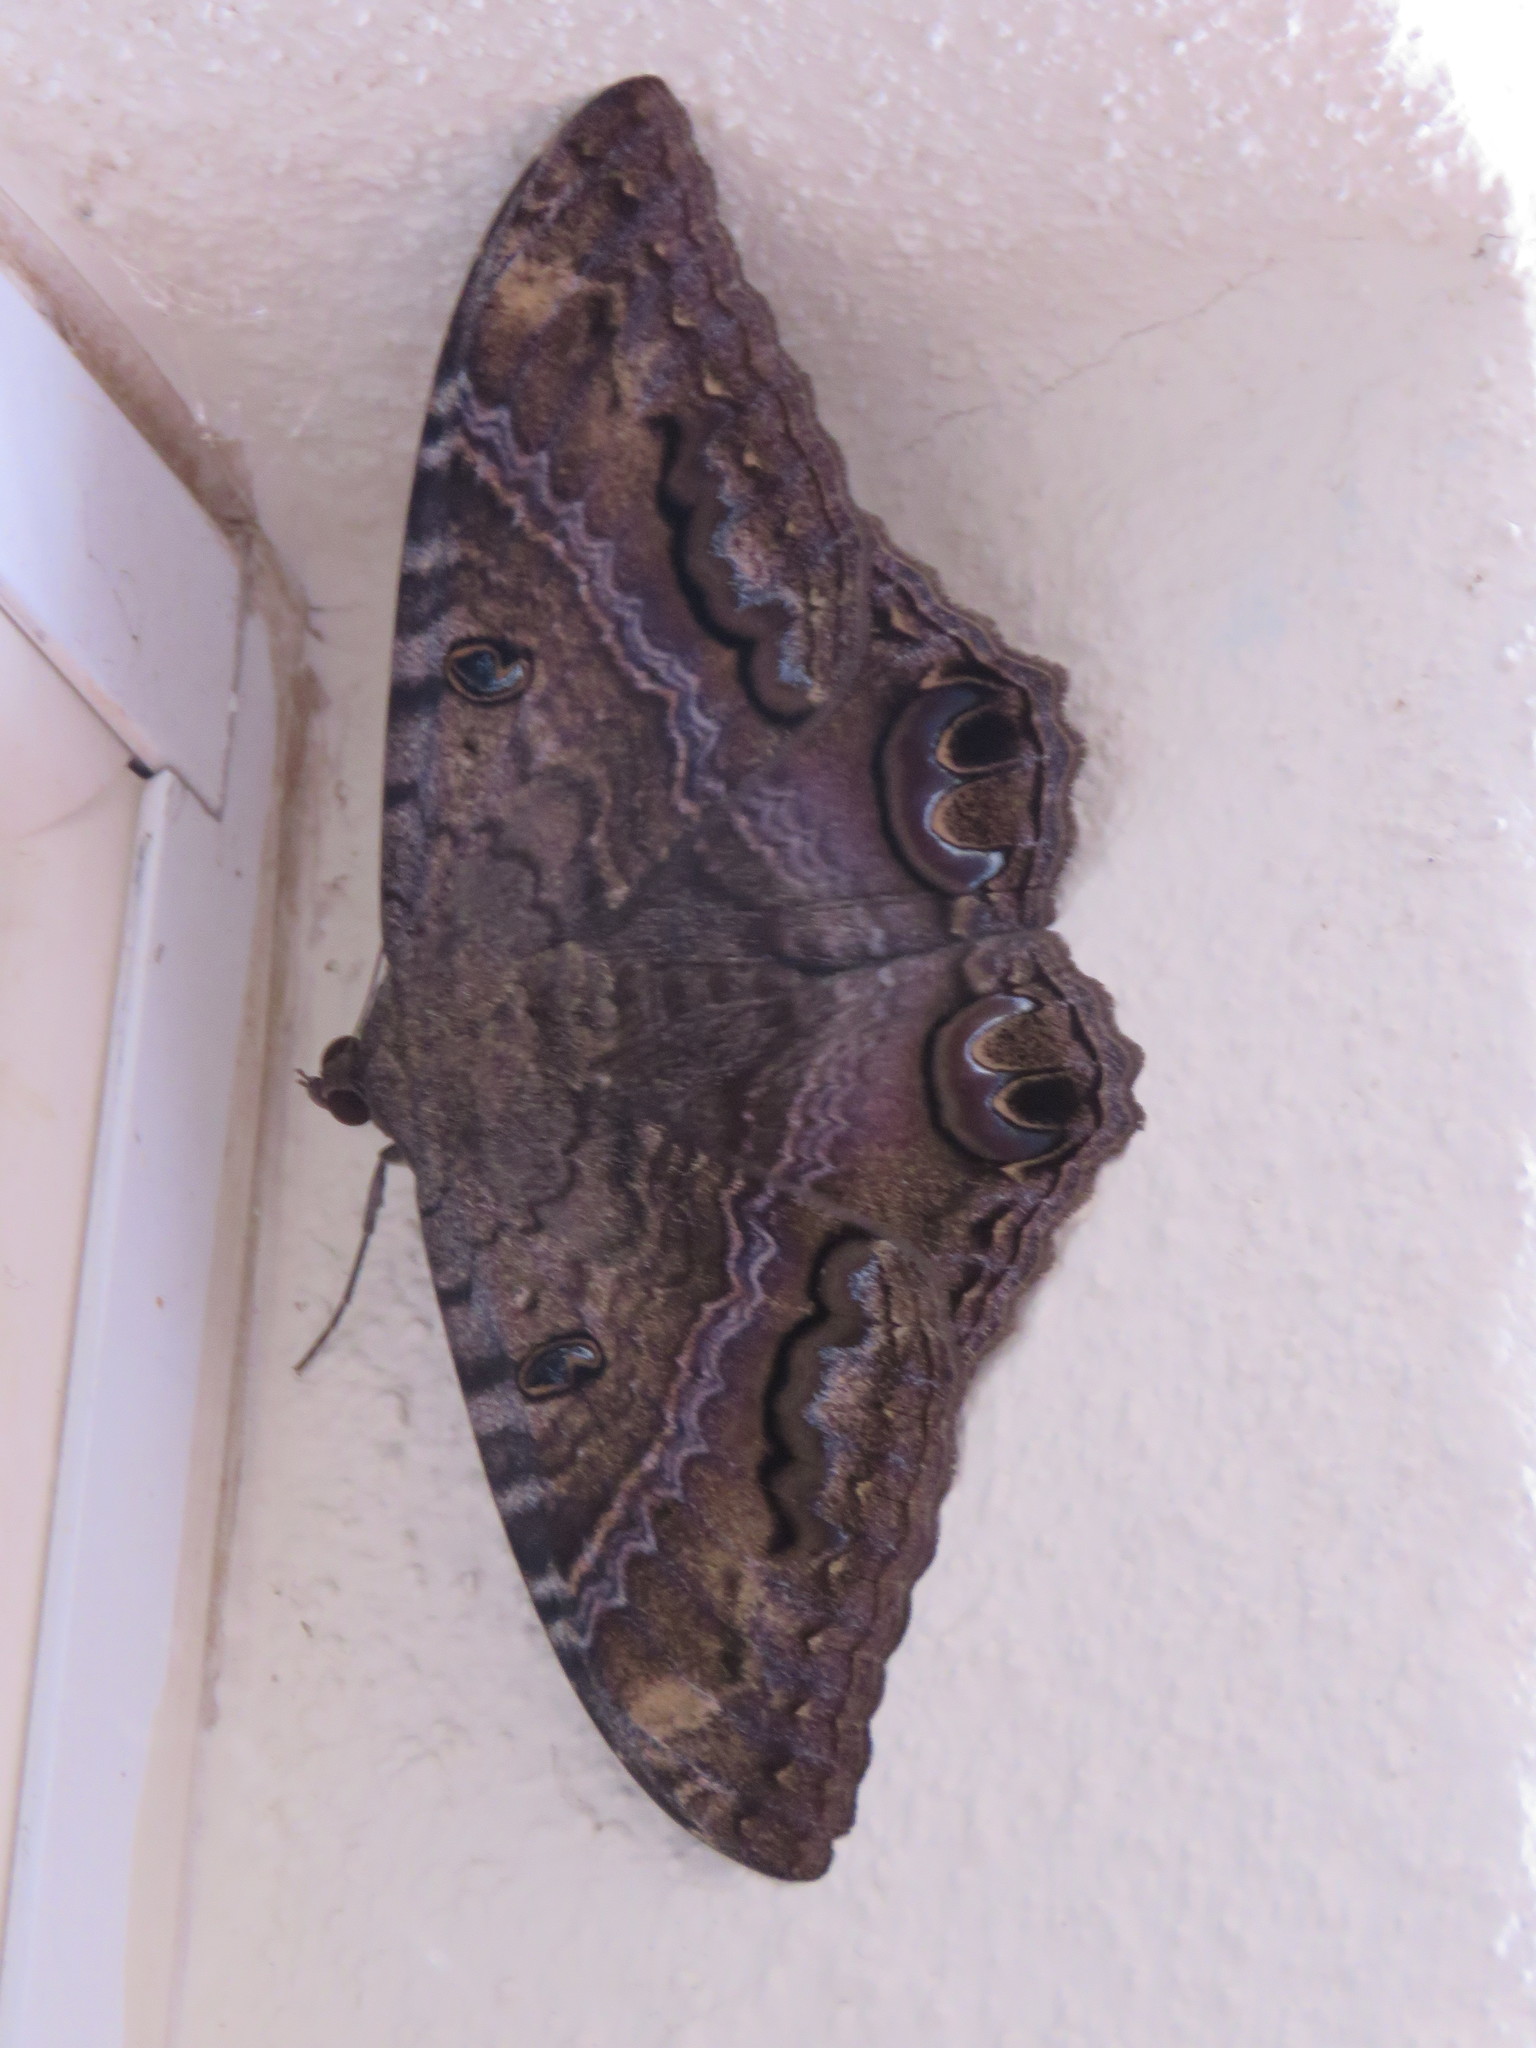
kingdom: Animalia
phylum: Arthropoda
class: Insecta
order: Lepidoptera
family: Erebidae
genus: Ascalapha
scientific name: Ascalapha odorata
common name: Black witch
